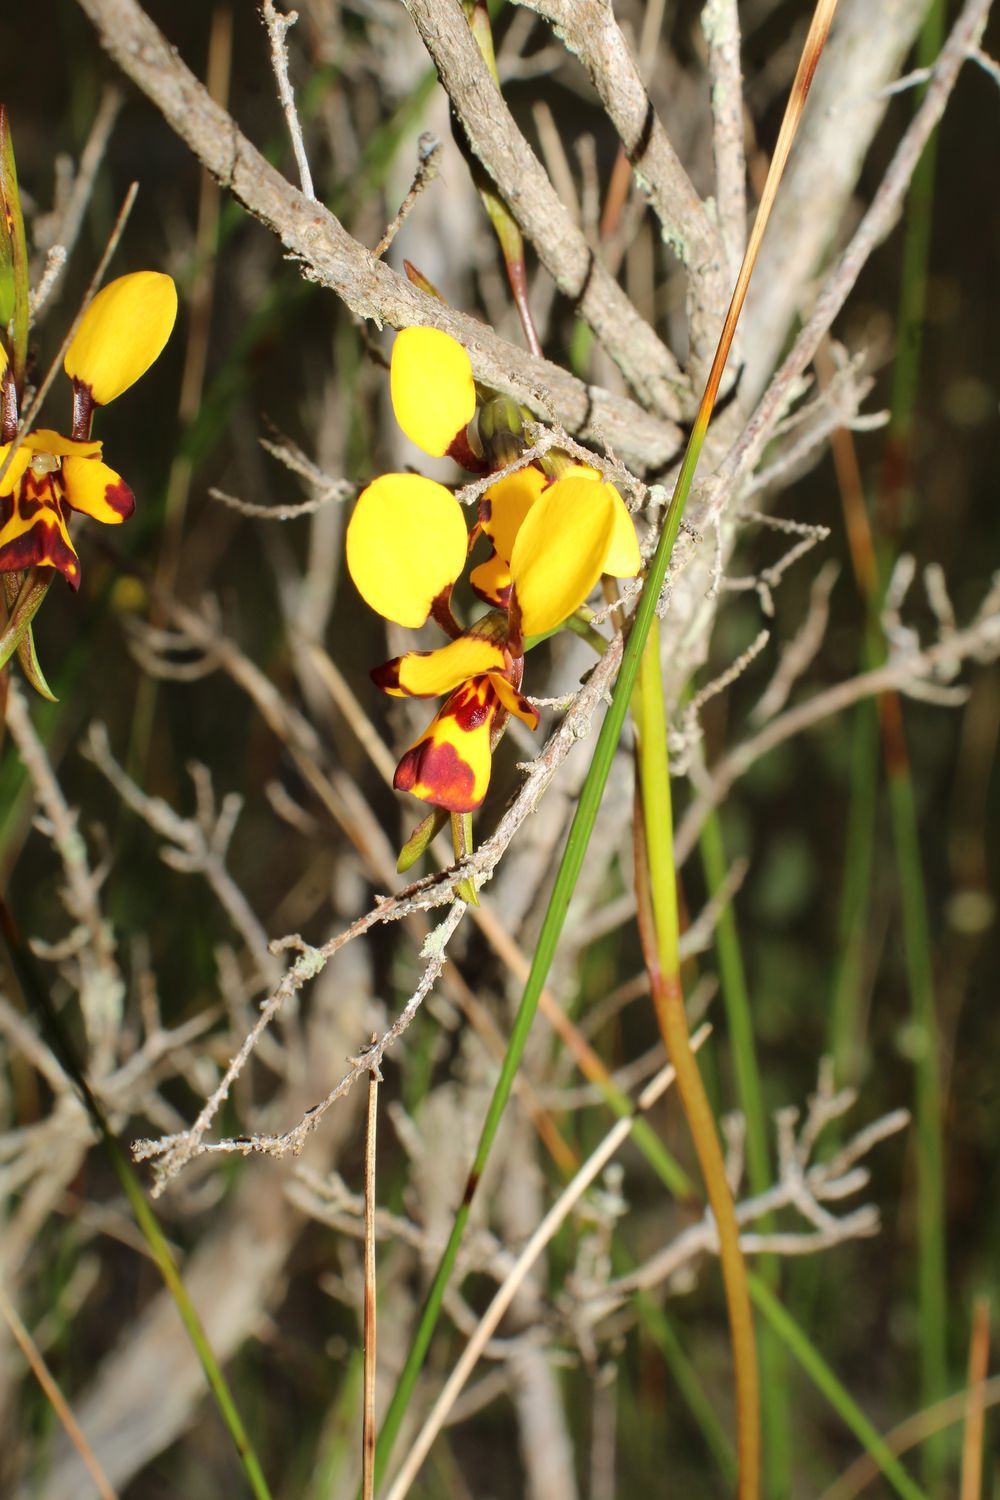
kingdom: Plantae
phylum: Tracheophyta
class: Liliopsida
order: Asparagales
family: Orchidaceae
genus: Diuris
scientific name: Diuris decrementum
